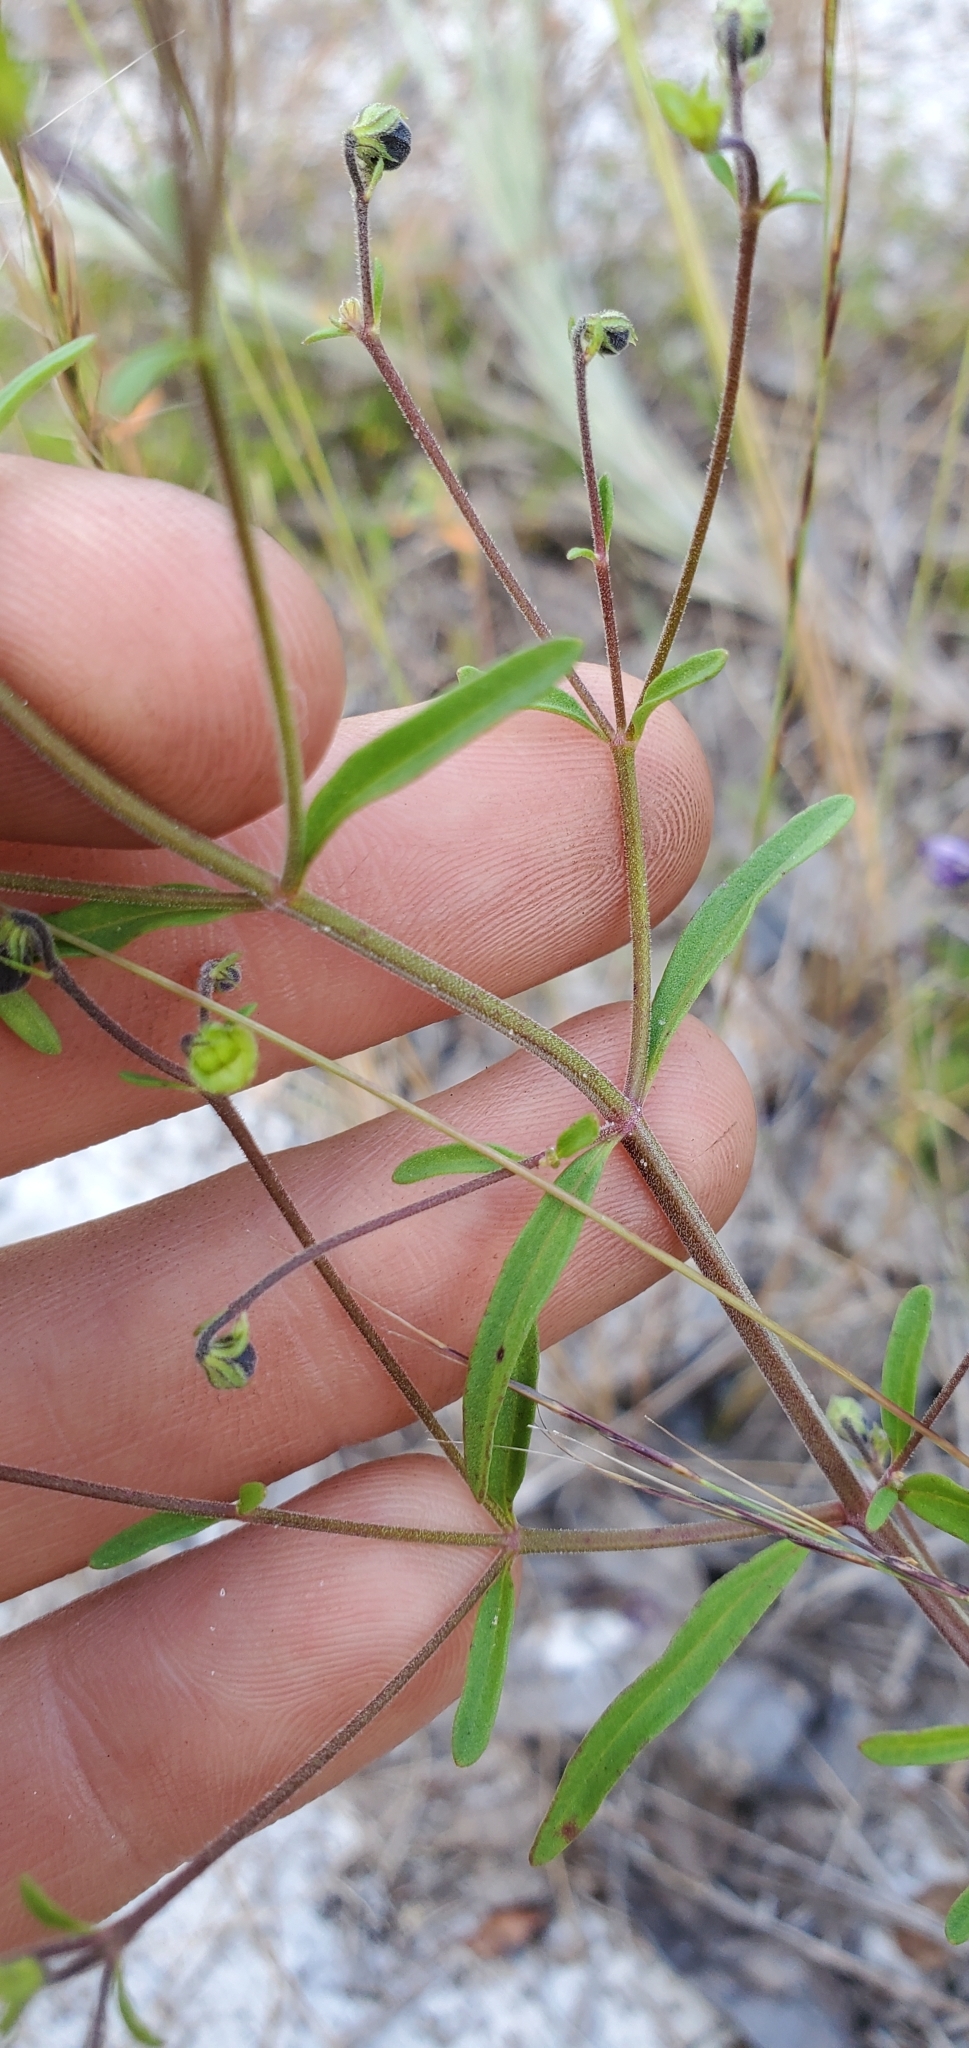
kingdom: Plantae
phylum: Tracheophyta
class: Magnoliopsida
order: Lamiales
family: Lamiaceae
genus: Trichostema
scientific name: Trichostema gracile
